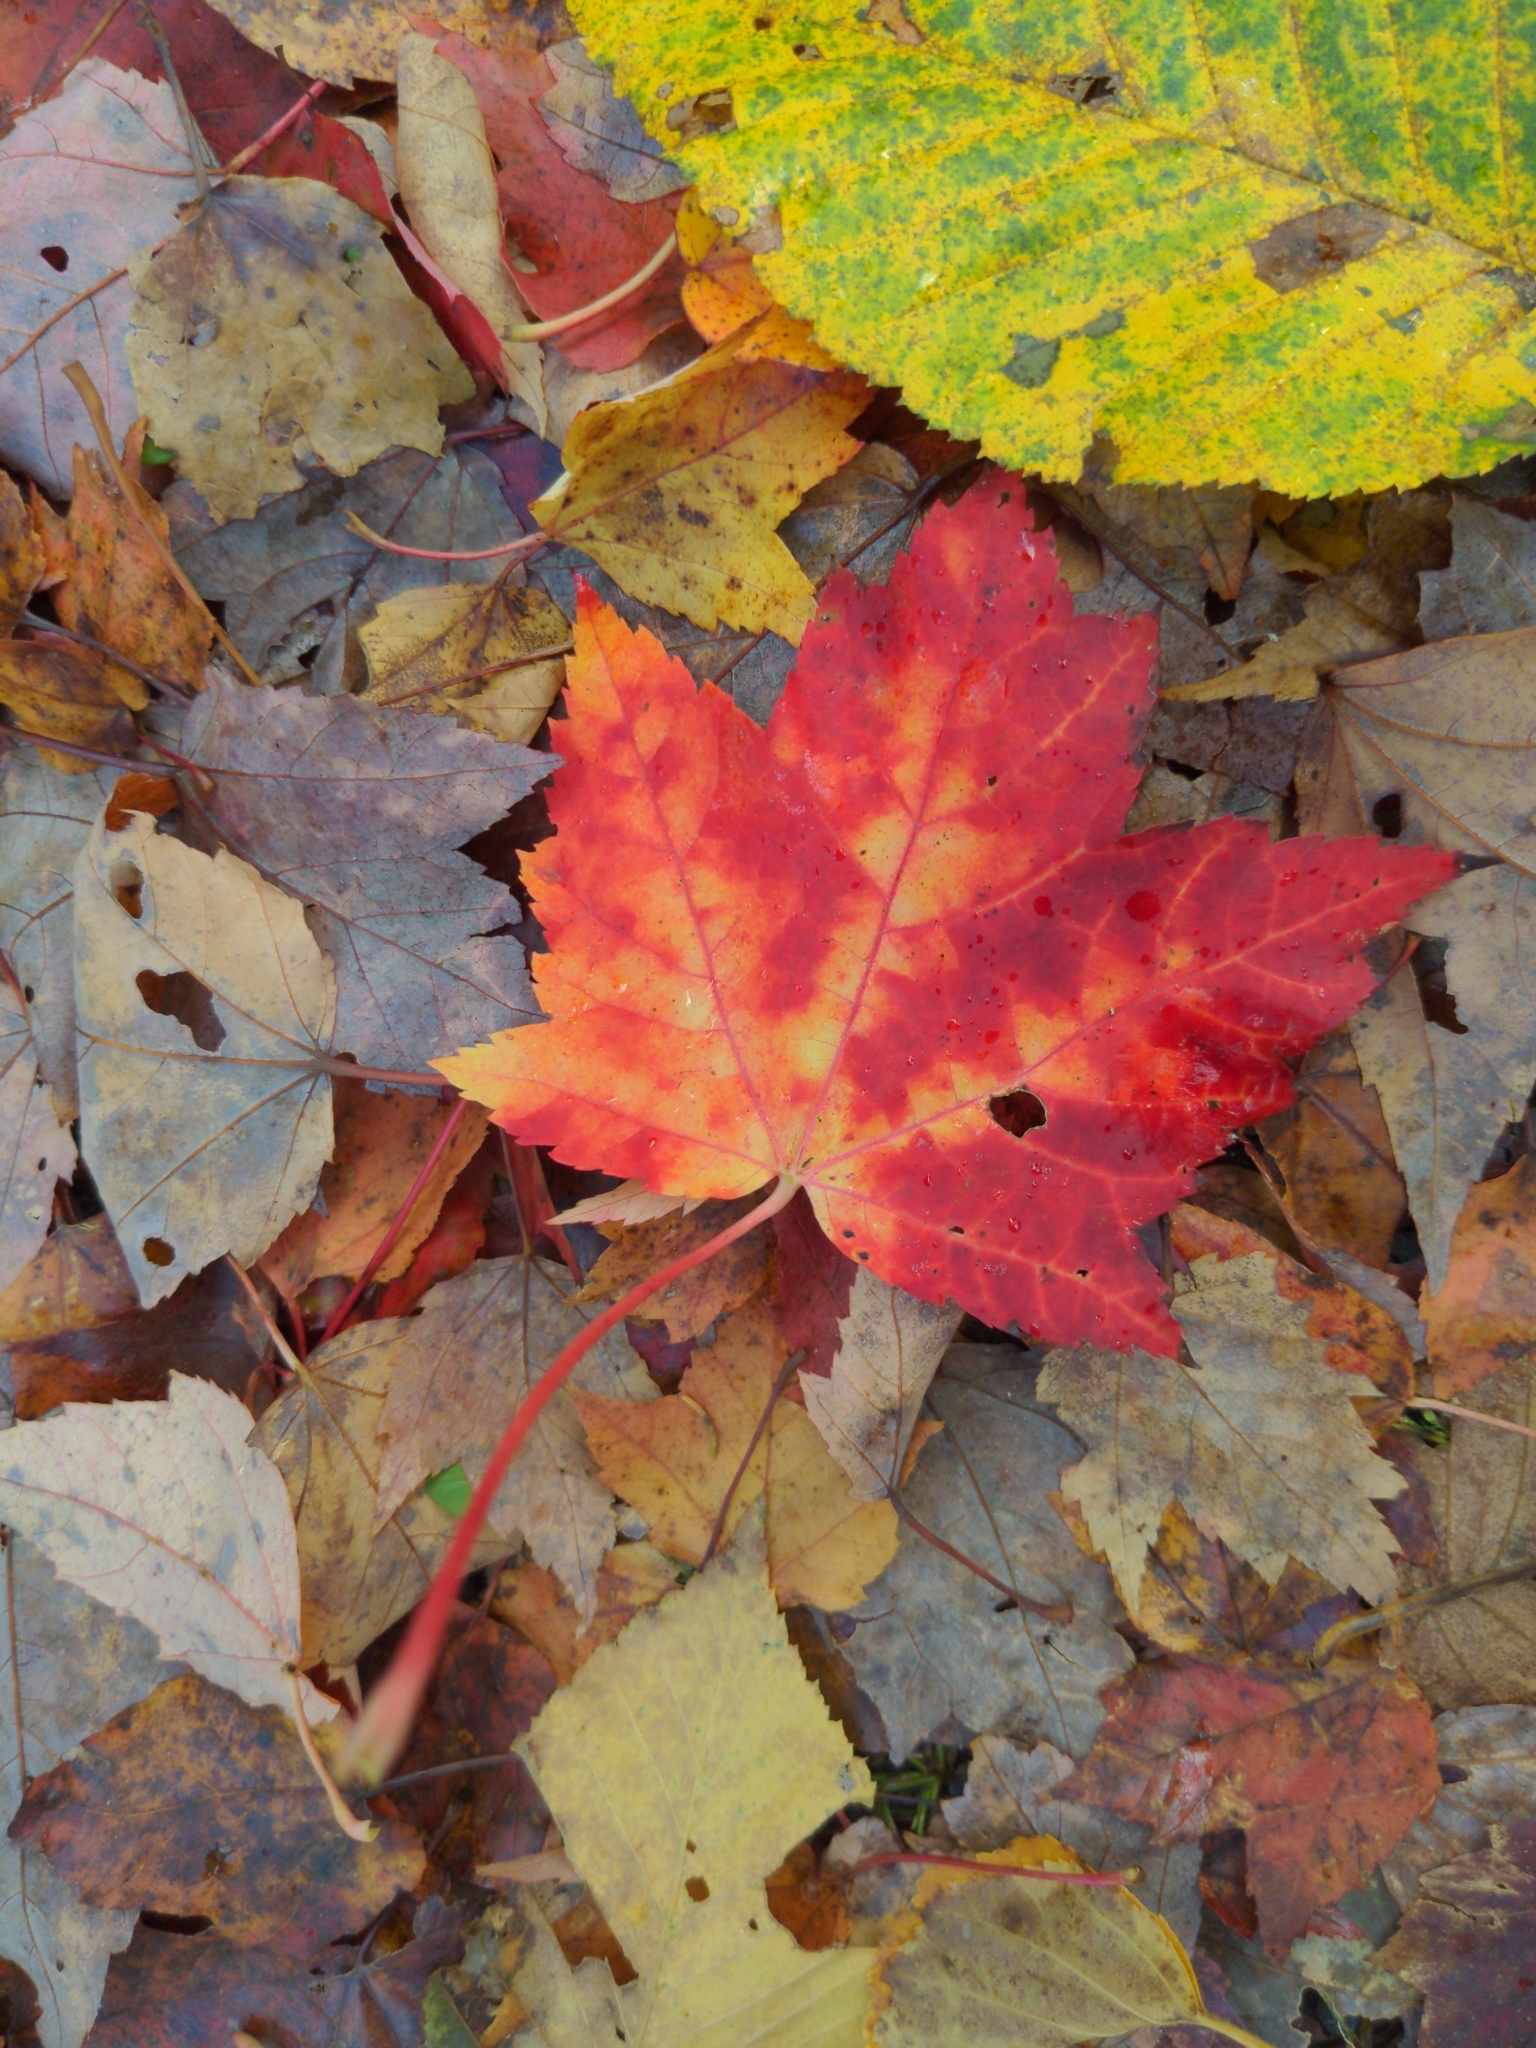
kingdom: Plantae
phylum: Tracheophyta
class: Magnoliopsida
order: Sapindales
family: Sapindaceae
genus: Acer
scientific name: Acer rubrum
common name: Red maple
